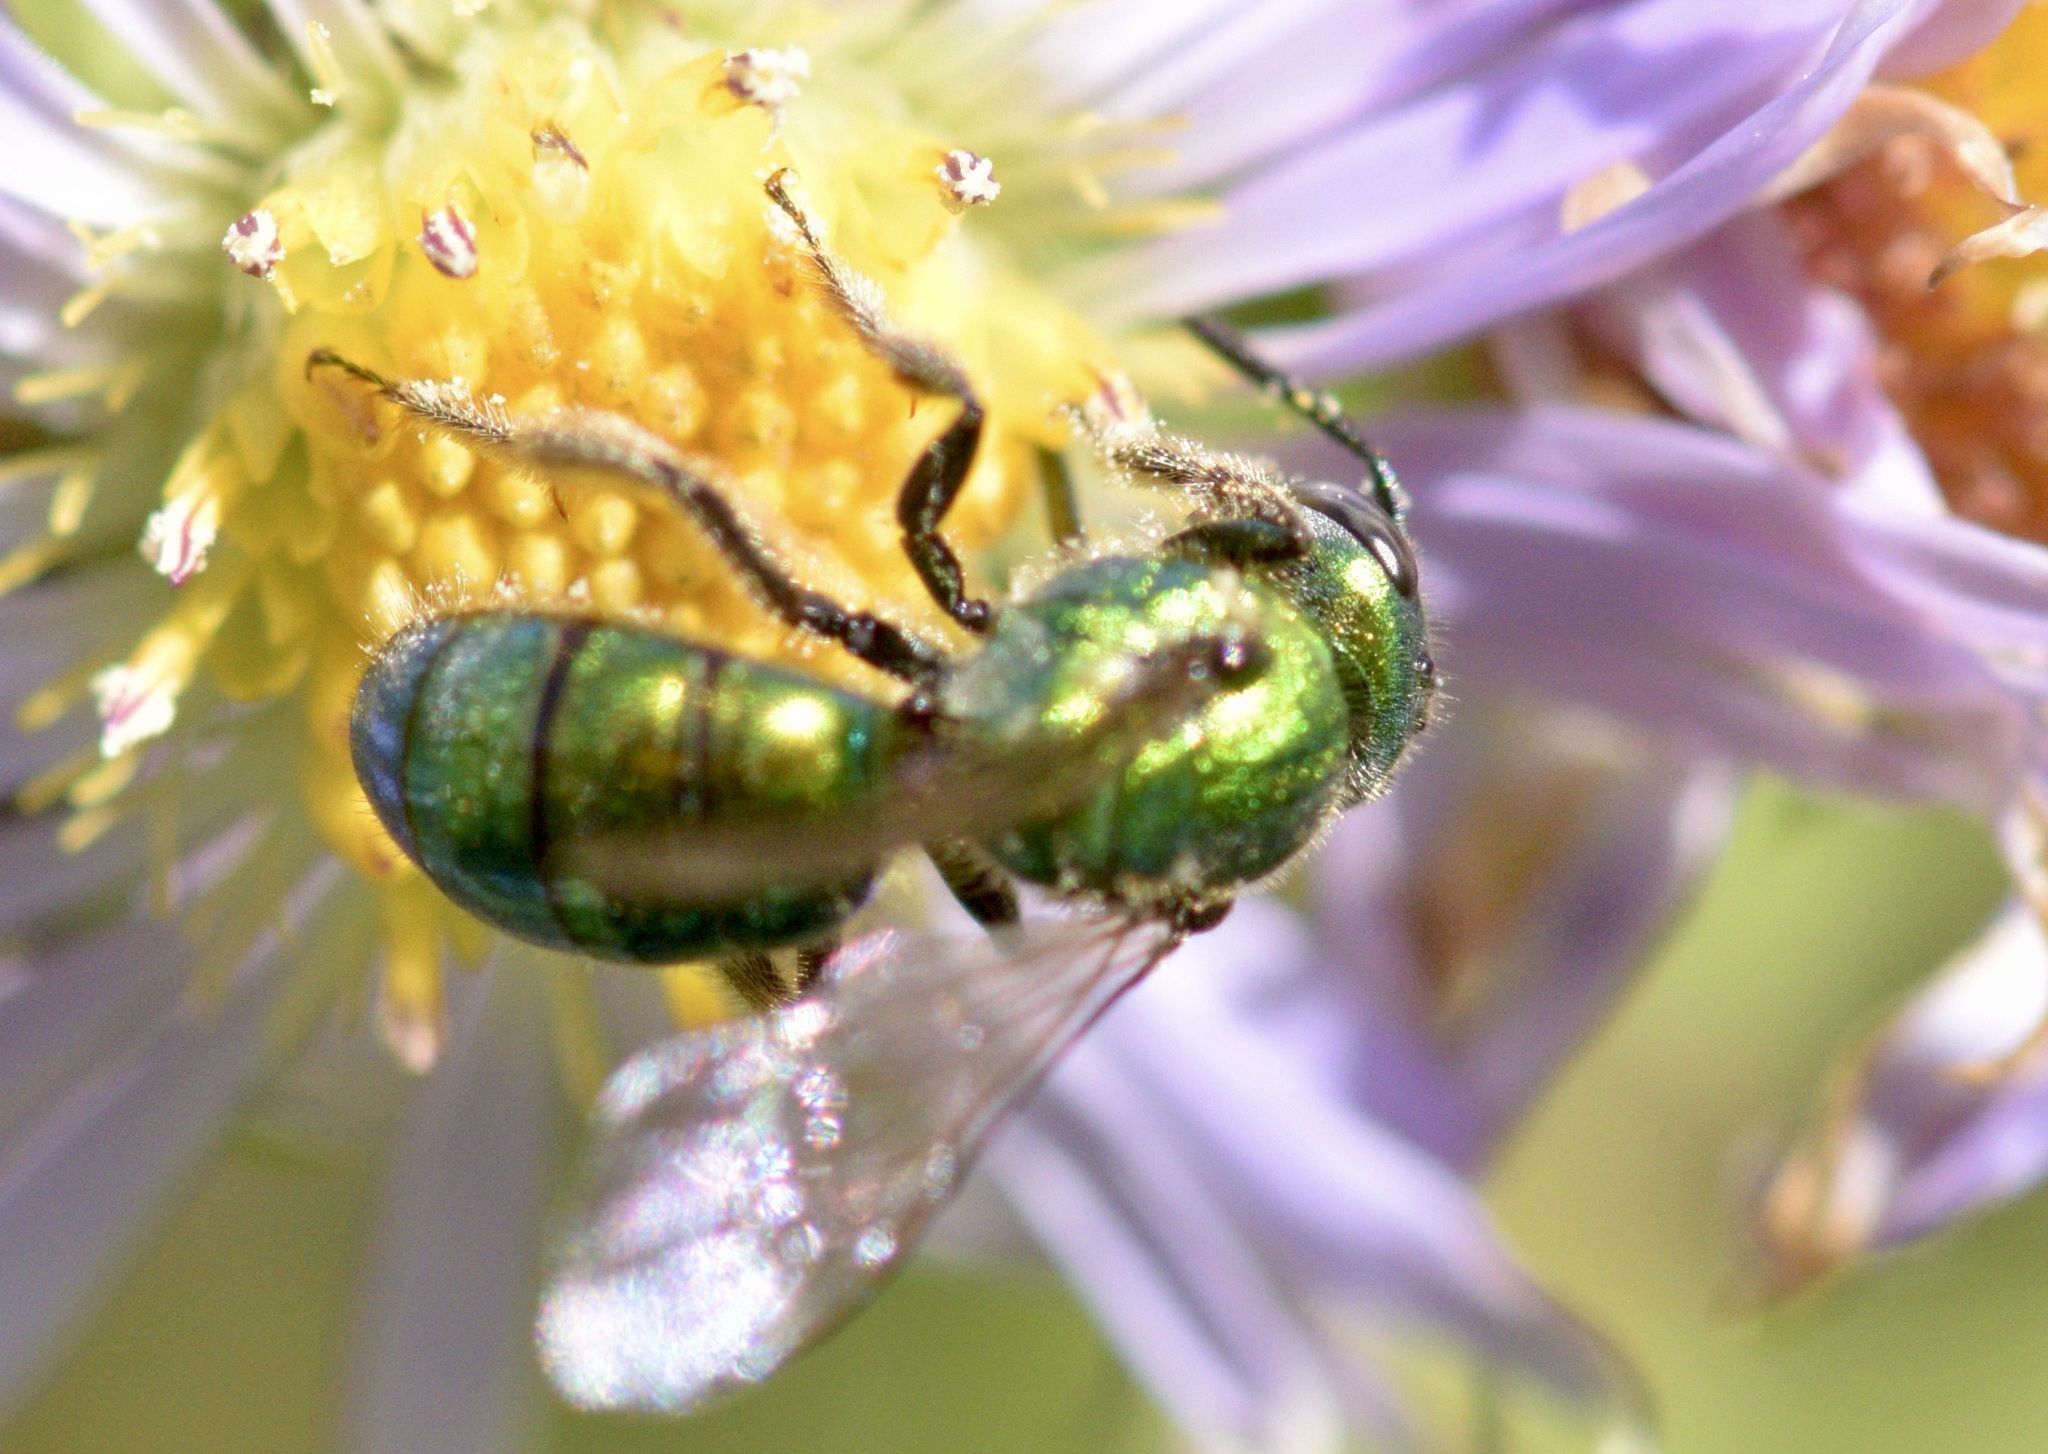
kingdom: Animalia
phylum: Arthropoda
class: Insecta
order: Hymenoptera
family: Halictidae
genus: Augochlora
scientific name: Augochlora pura
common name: Pure green sweat bee
